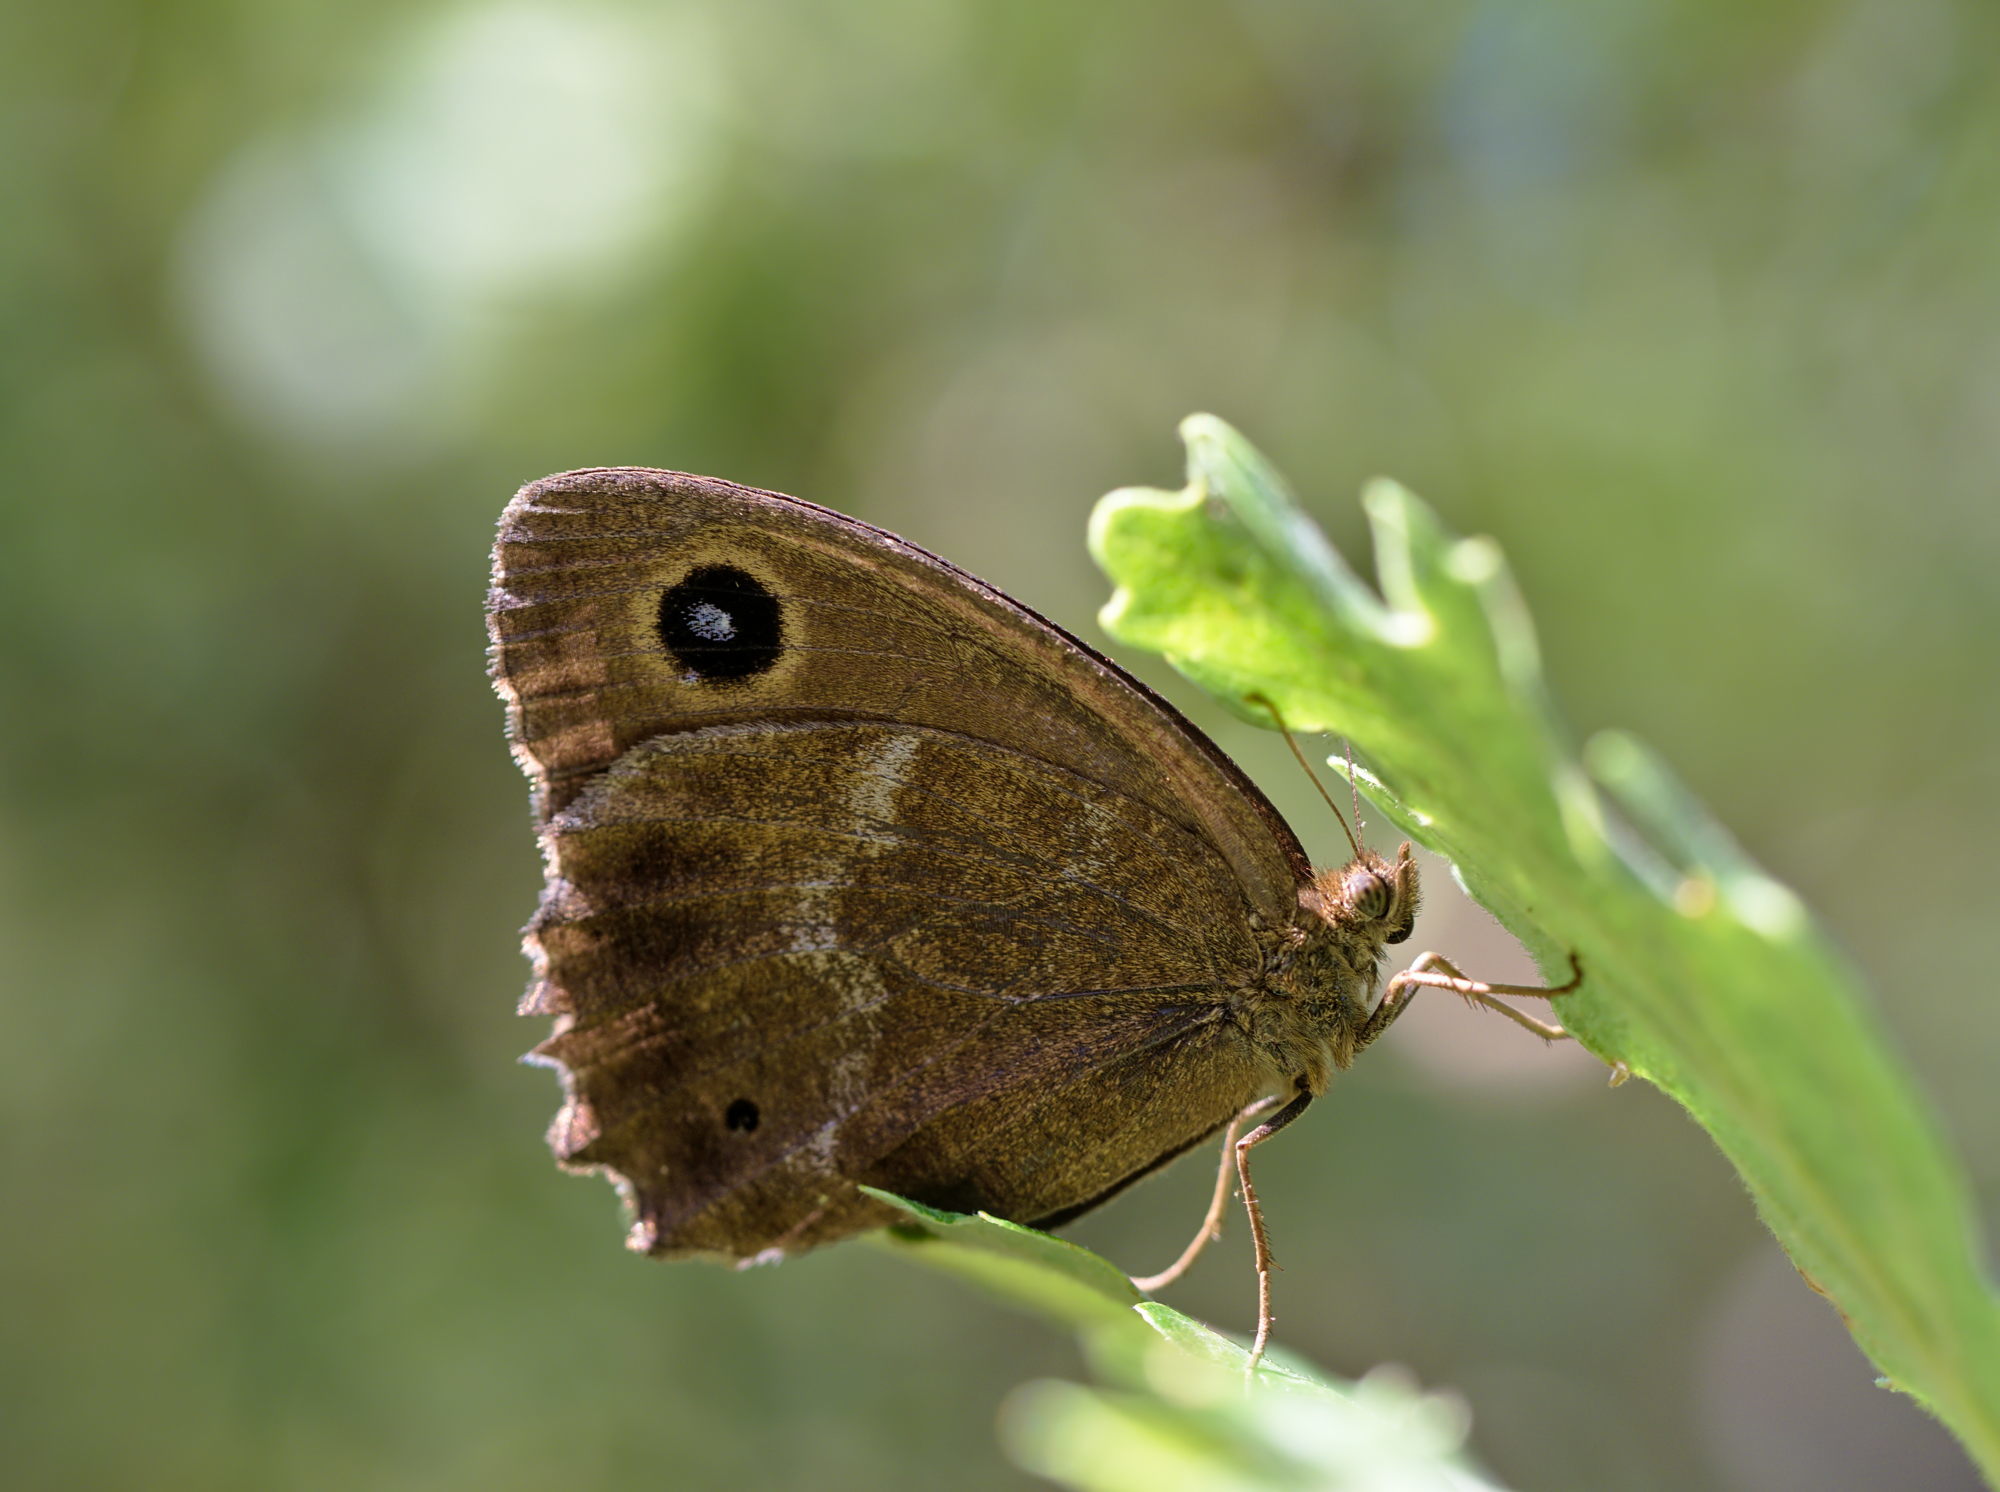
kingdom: Animalia
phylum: Arthropoda
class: Insecta
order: Lepidoptera
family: Nymphalidae
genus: Minois
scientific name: Minois dryas
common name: Dryad
